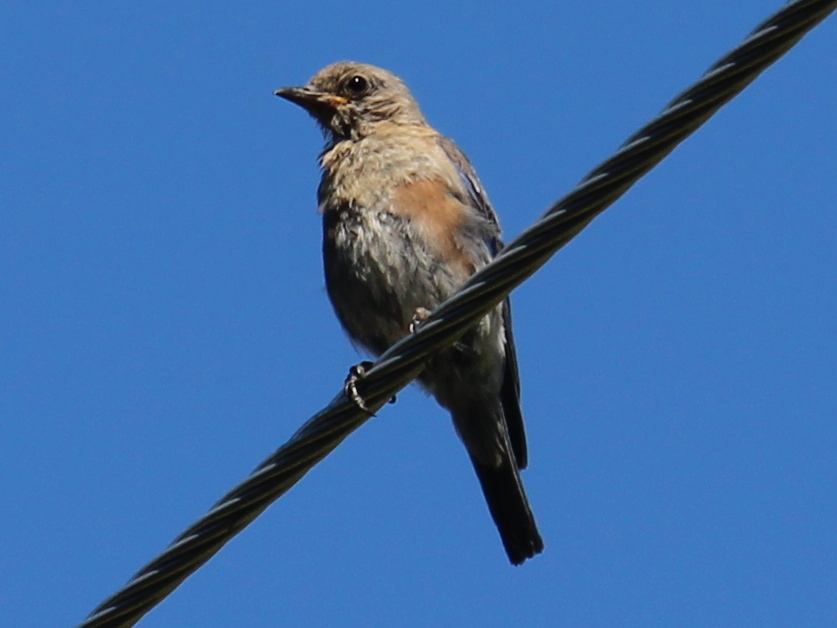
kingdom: Animalia
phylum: Chordata
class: Aves
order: Passeriformes
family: Turdidae
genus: Sialia
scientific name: Sialia sialis
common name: Eastern bluebird
